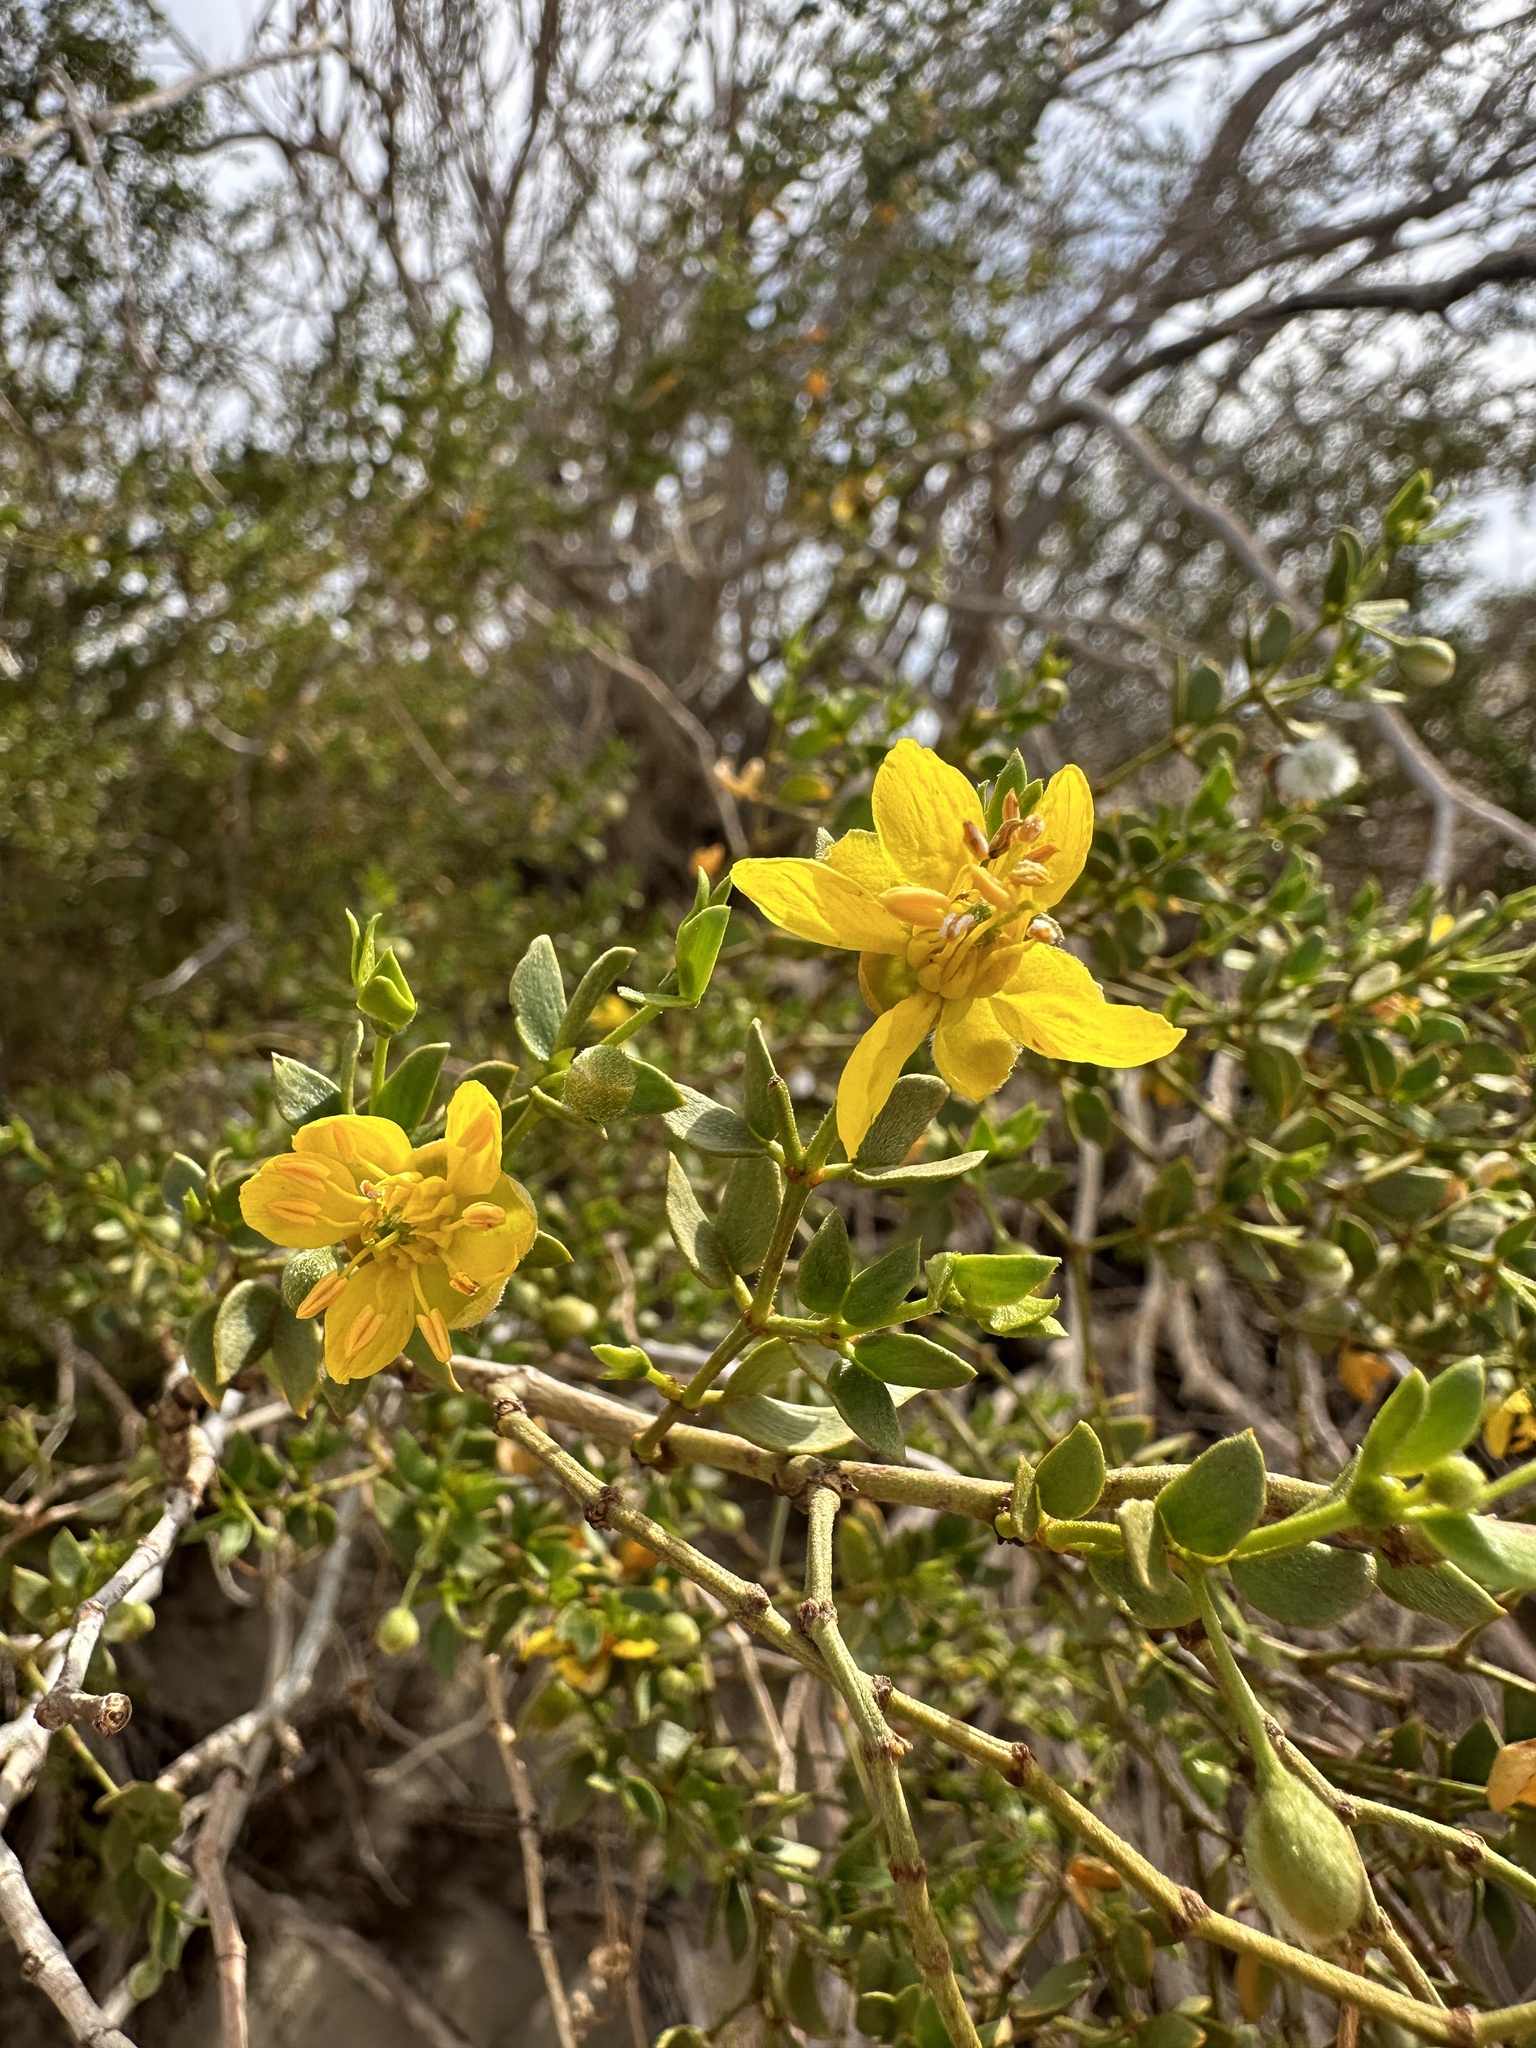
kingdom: Plantae
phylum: Tracheophyta
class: Magnoliopsida
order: Zygophyllales
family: Zygophyllaceae
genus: Larrea
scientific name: Larrea tridentata
